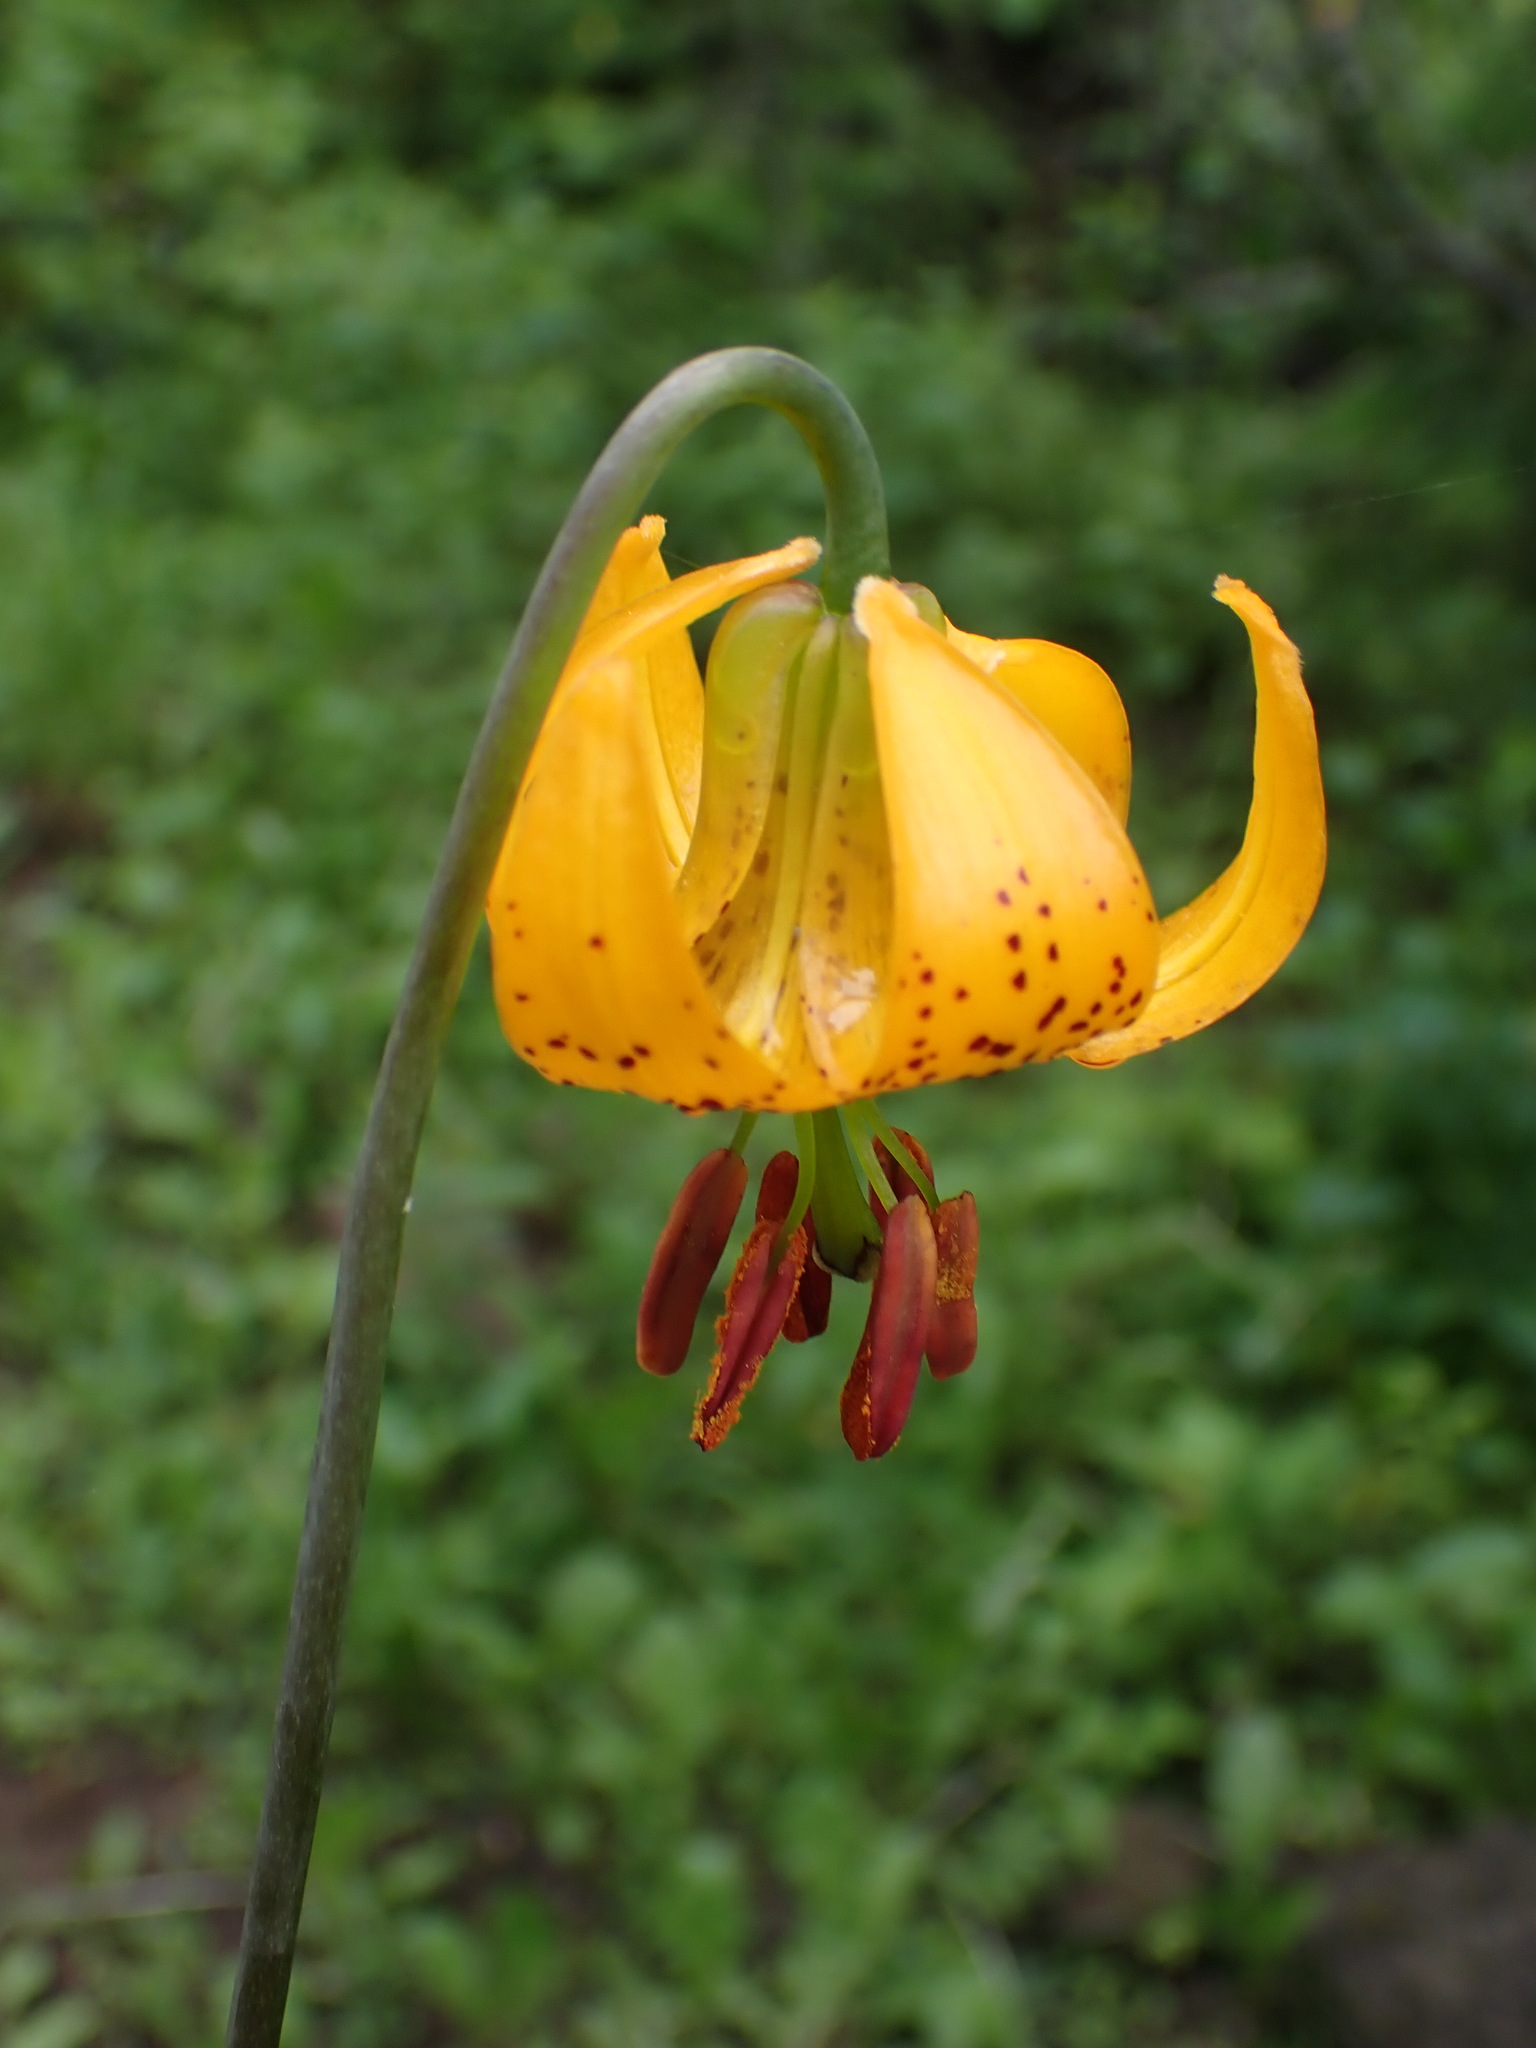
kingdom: Plantae
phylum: Tracheophyta
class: Liliopsida
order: Liliales
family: Liliaceae
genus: Lilium
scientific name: Lilium columbianum
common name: Columbia lily
